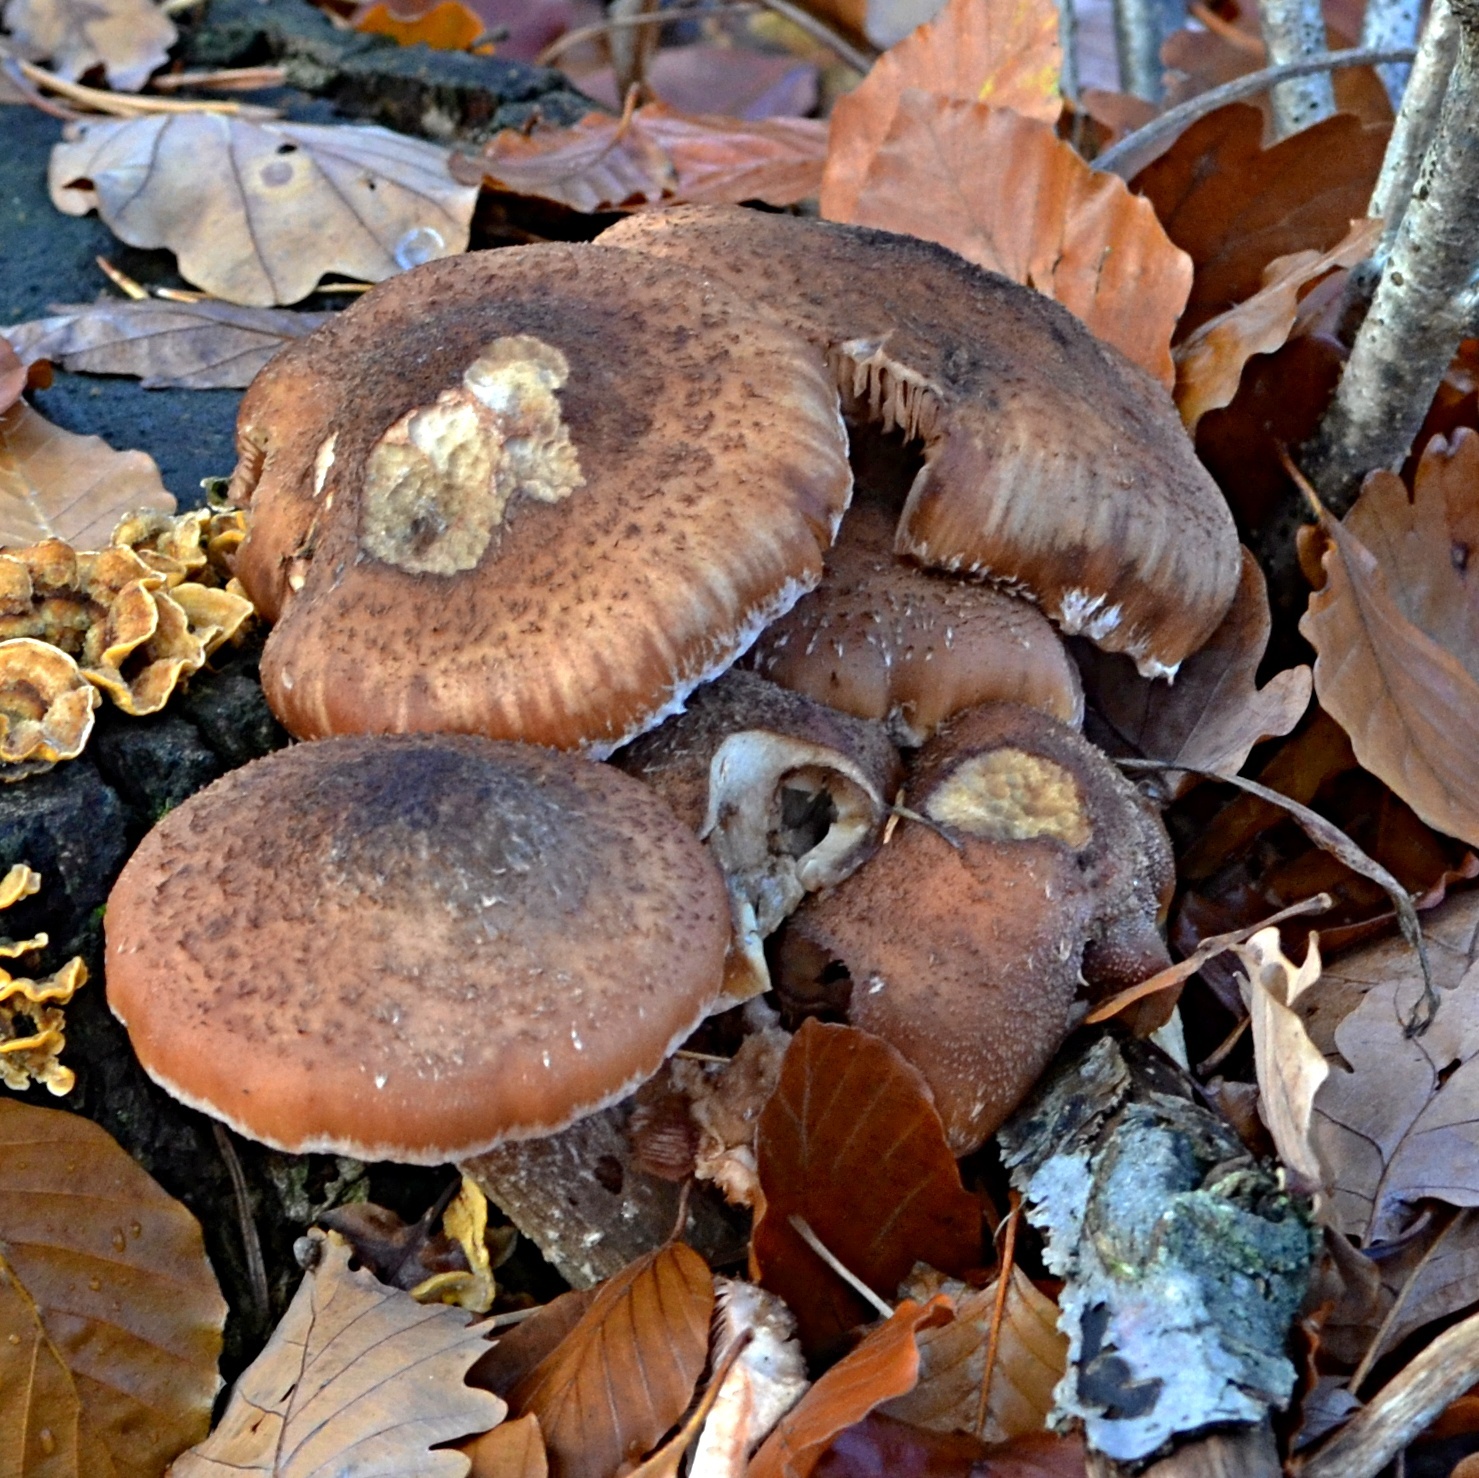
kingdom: Fungi
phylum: Basidiomycota
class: Agaricomycetes
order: Agaricales
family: Physalacriaceae
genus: Armillaria
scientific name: Armillaria ostoyae
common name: Dark honey fungus
